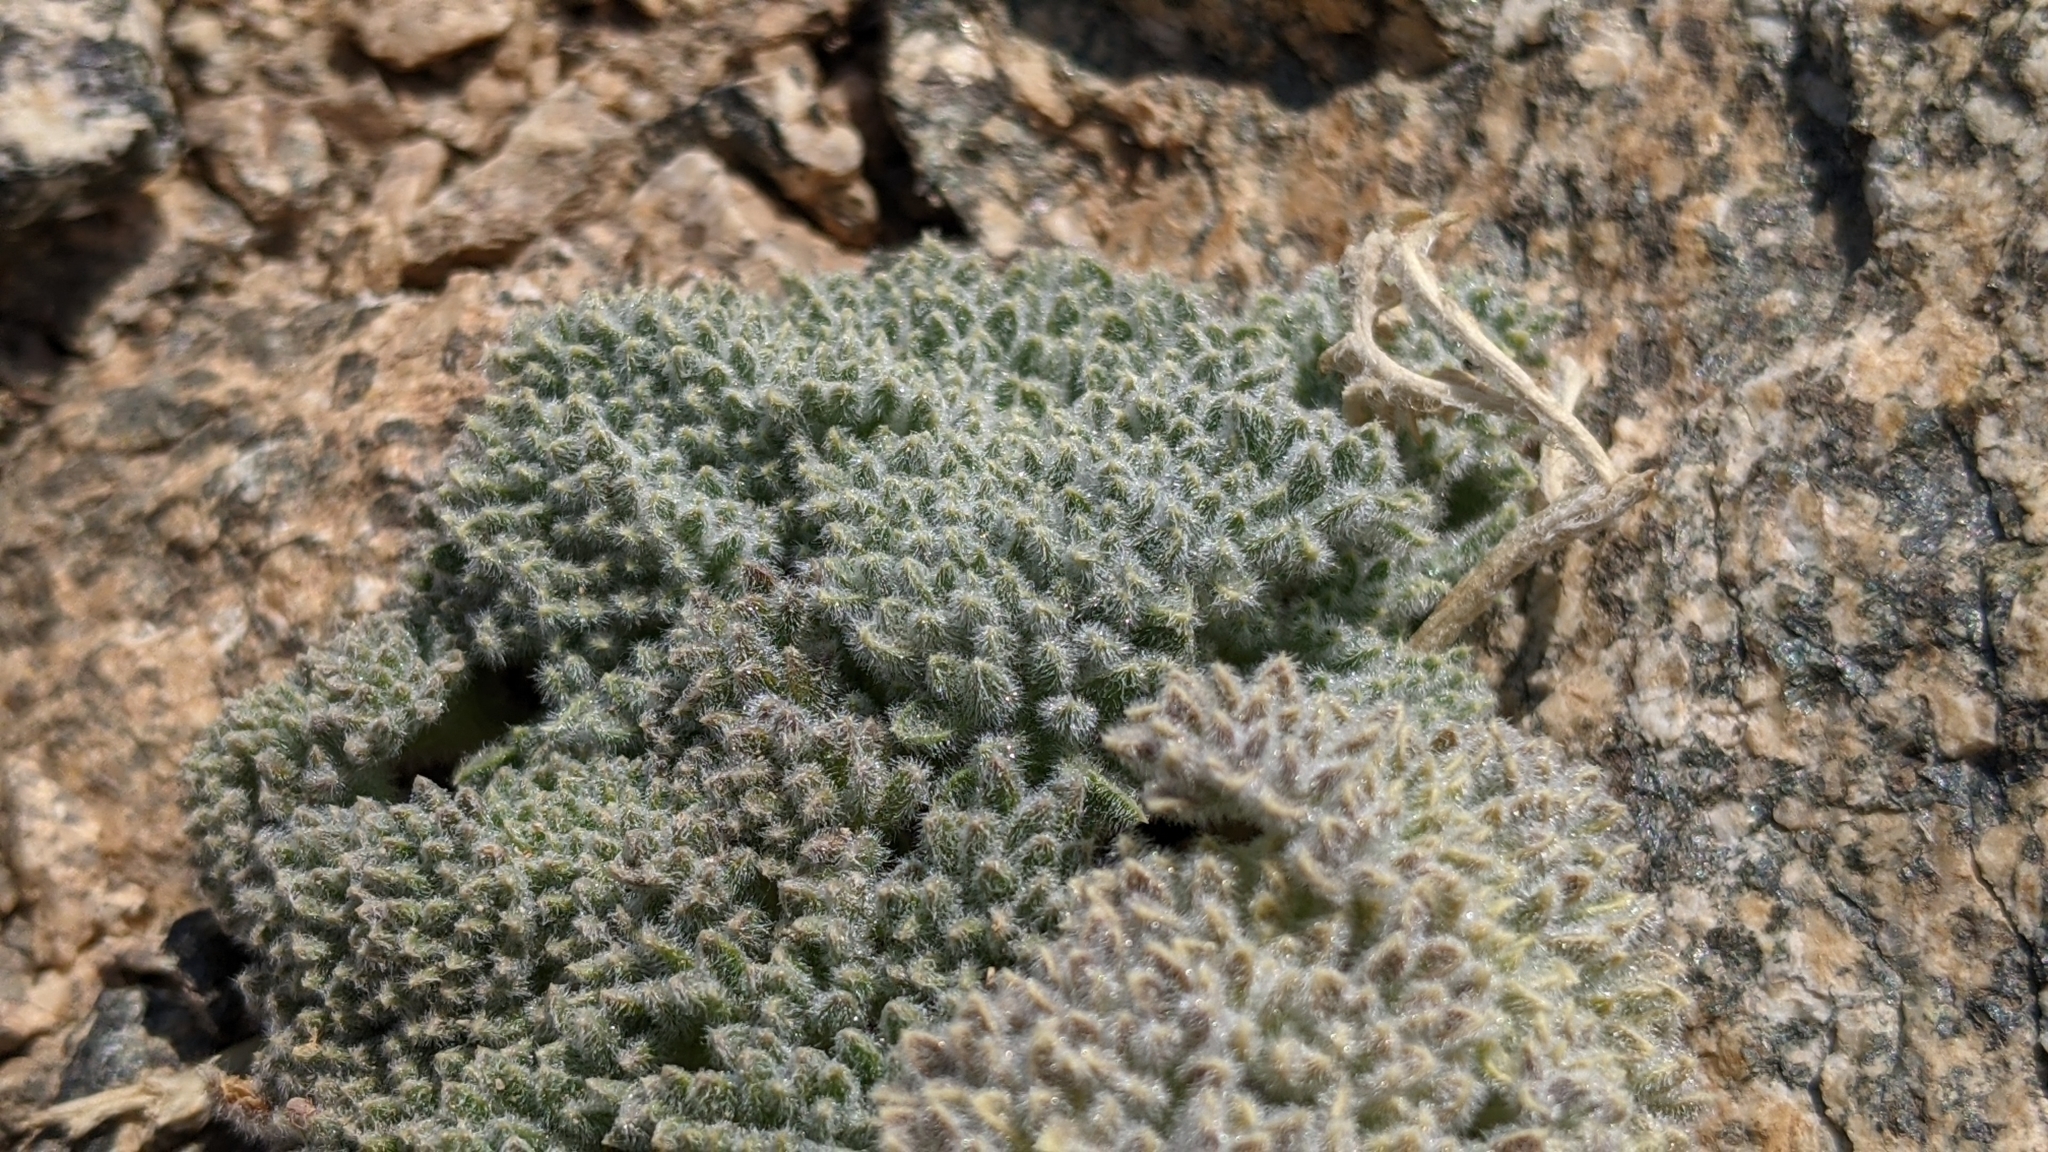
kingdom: Plantae
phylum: Tracheophyta
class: Magnoliopsida
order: Apiales
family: Apiaceae
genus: Oreonana
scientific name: Oreonana vestita
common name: Woolly mountain-parsley
